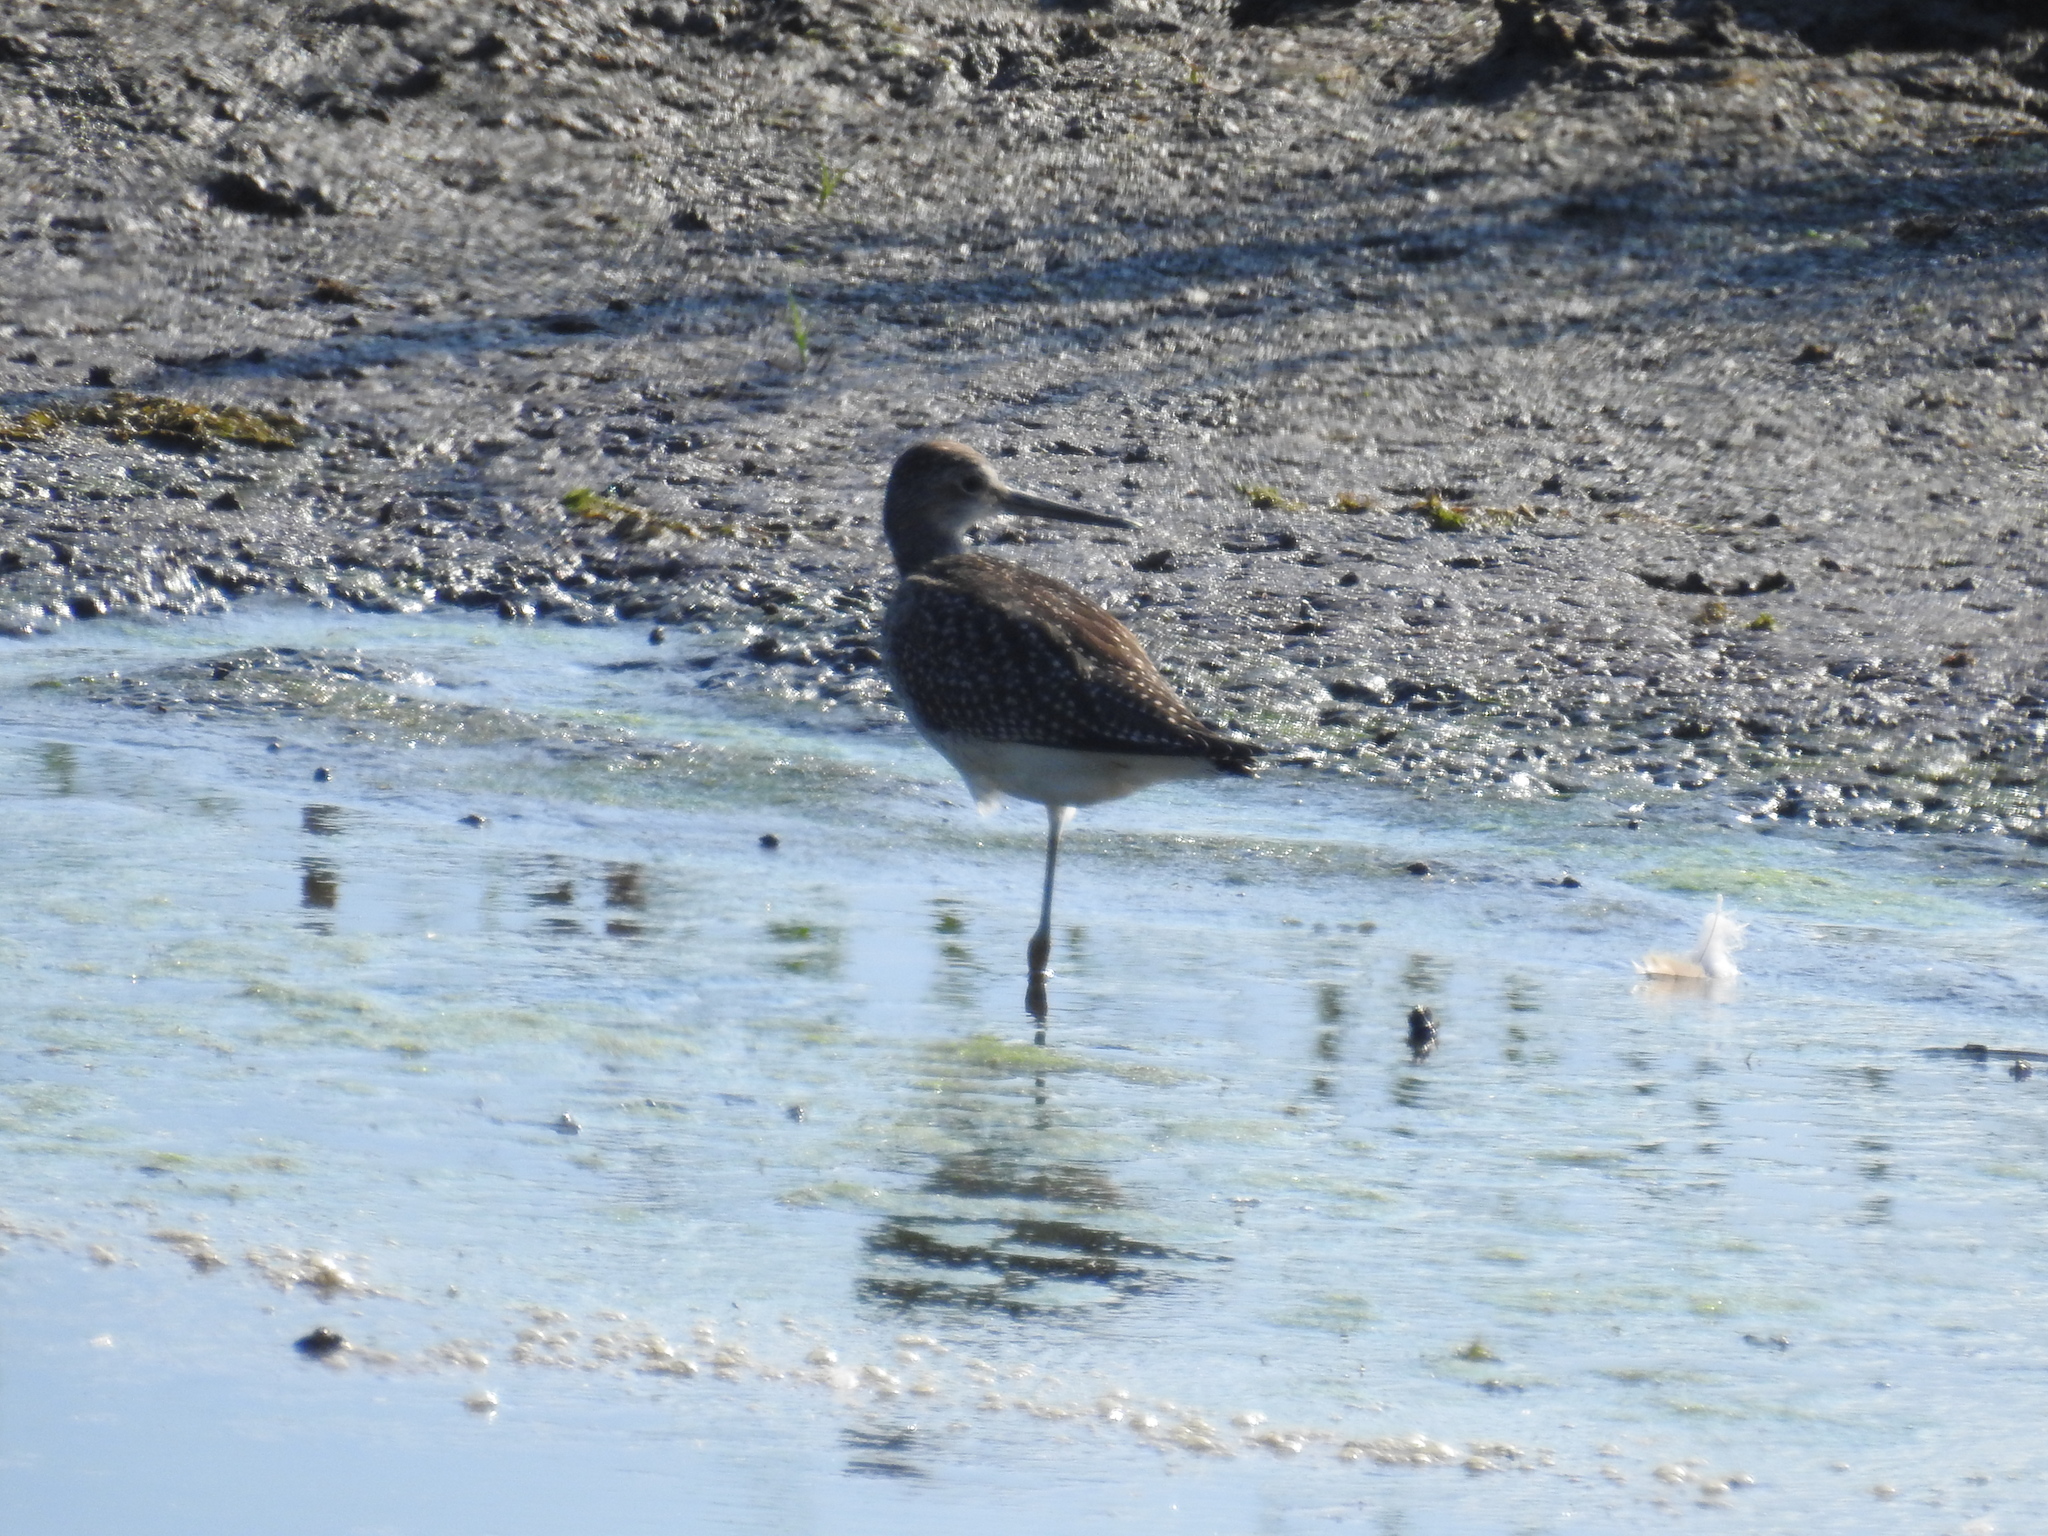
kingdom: Animalia
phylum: Chordata
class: Aves
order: Charadriiformes
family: Scolopacidae
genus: Tringa
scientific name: Tringa flavipes
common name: Lesser yellowlegs
